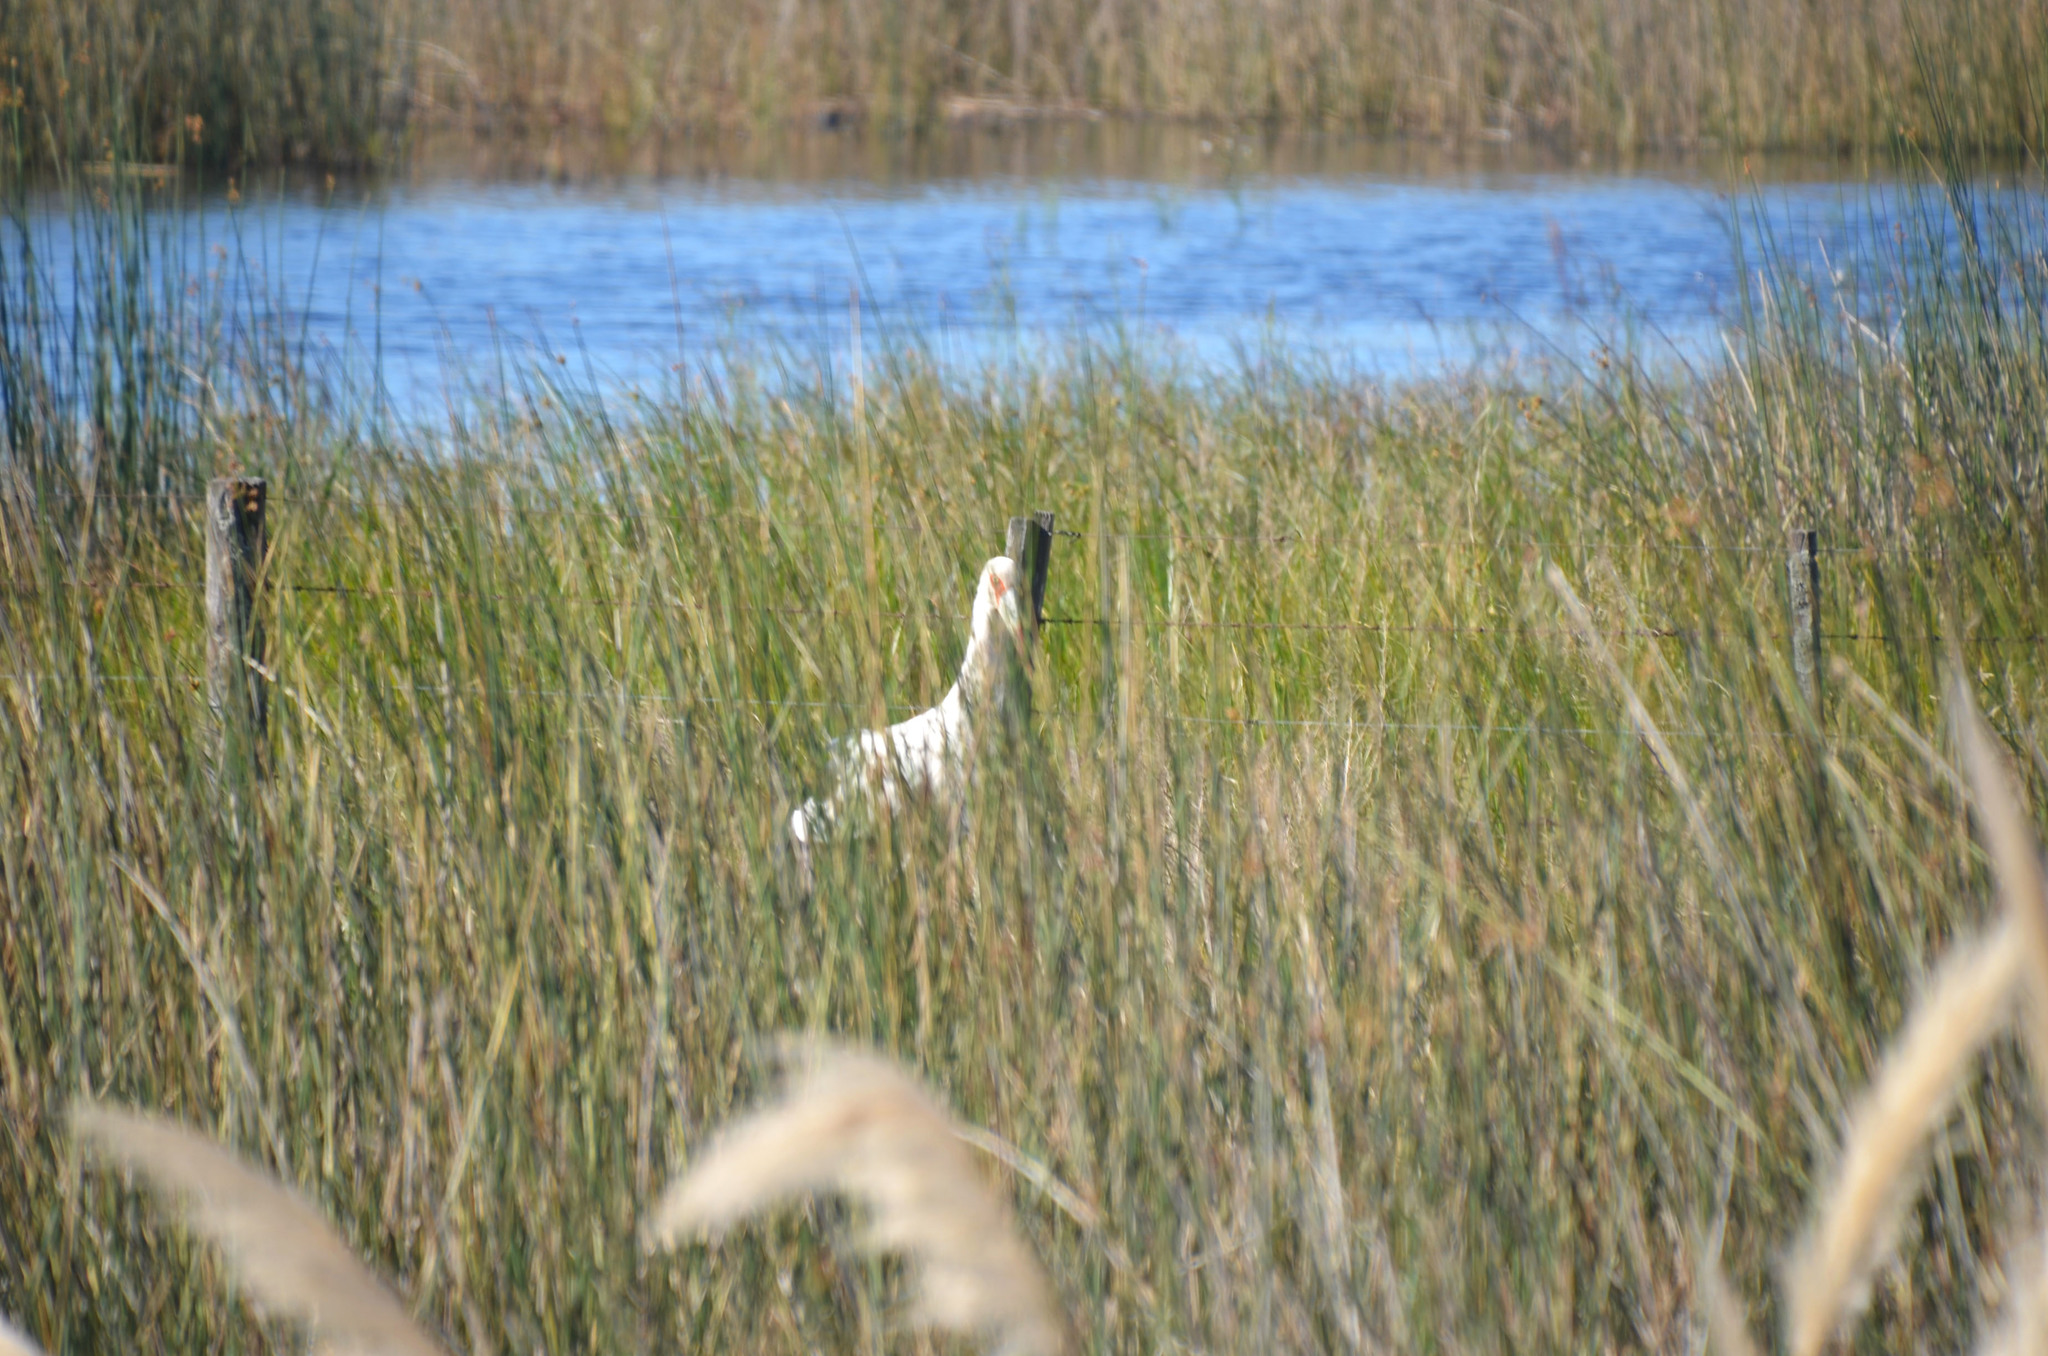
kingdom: Animalia
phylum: Chordata
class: Aves
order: Ciconiiformes
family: Ciconiidae
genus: Ciconia
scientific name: Ciconia maguari
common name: Maguari stork
